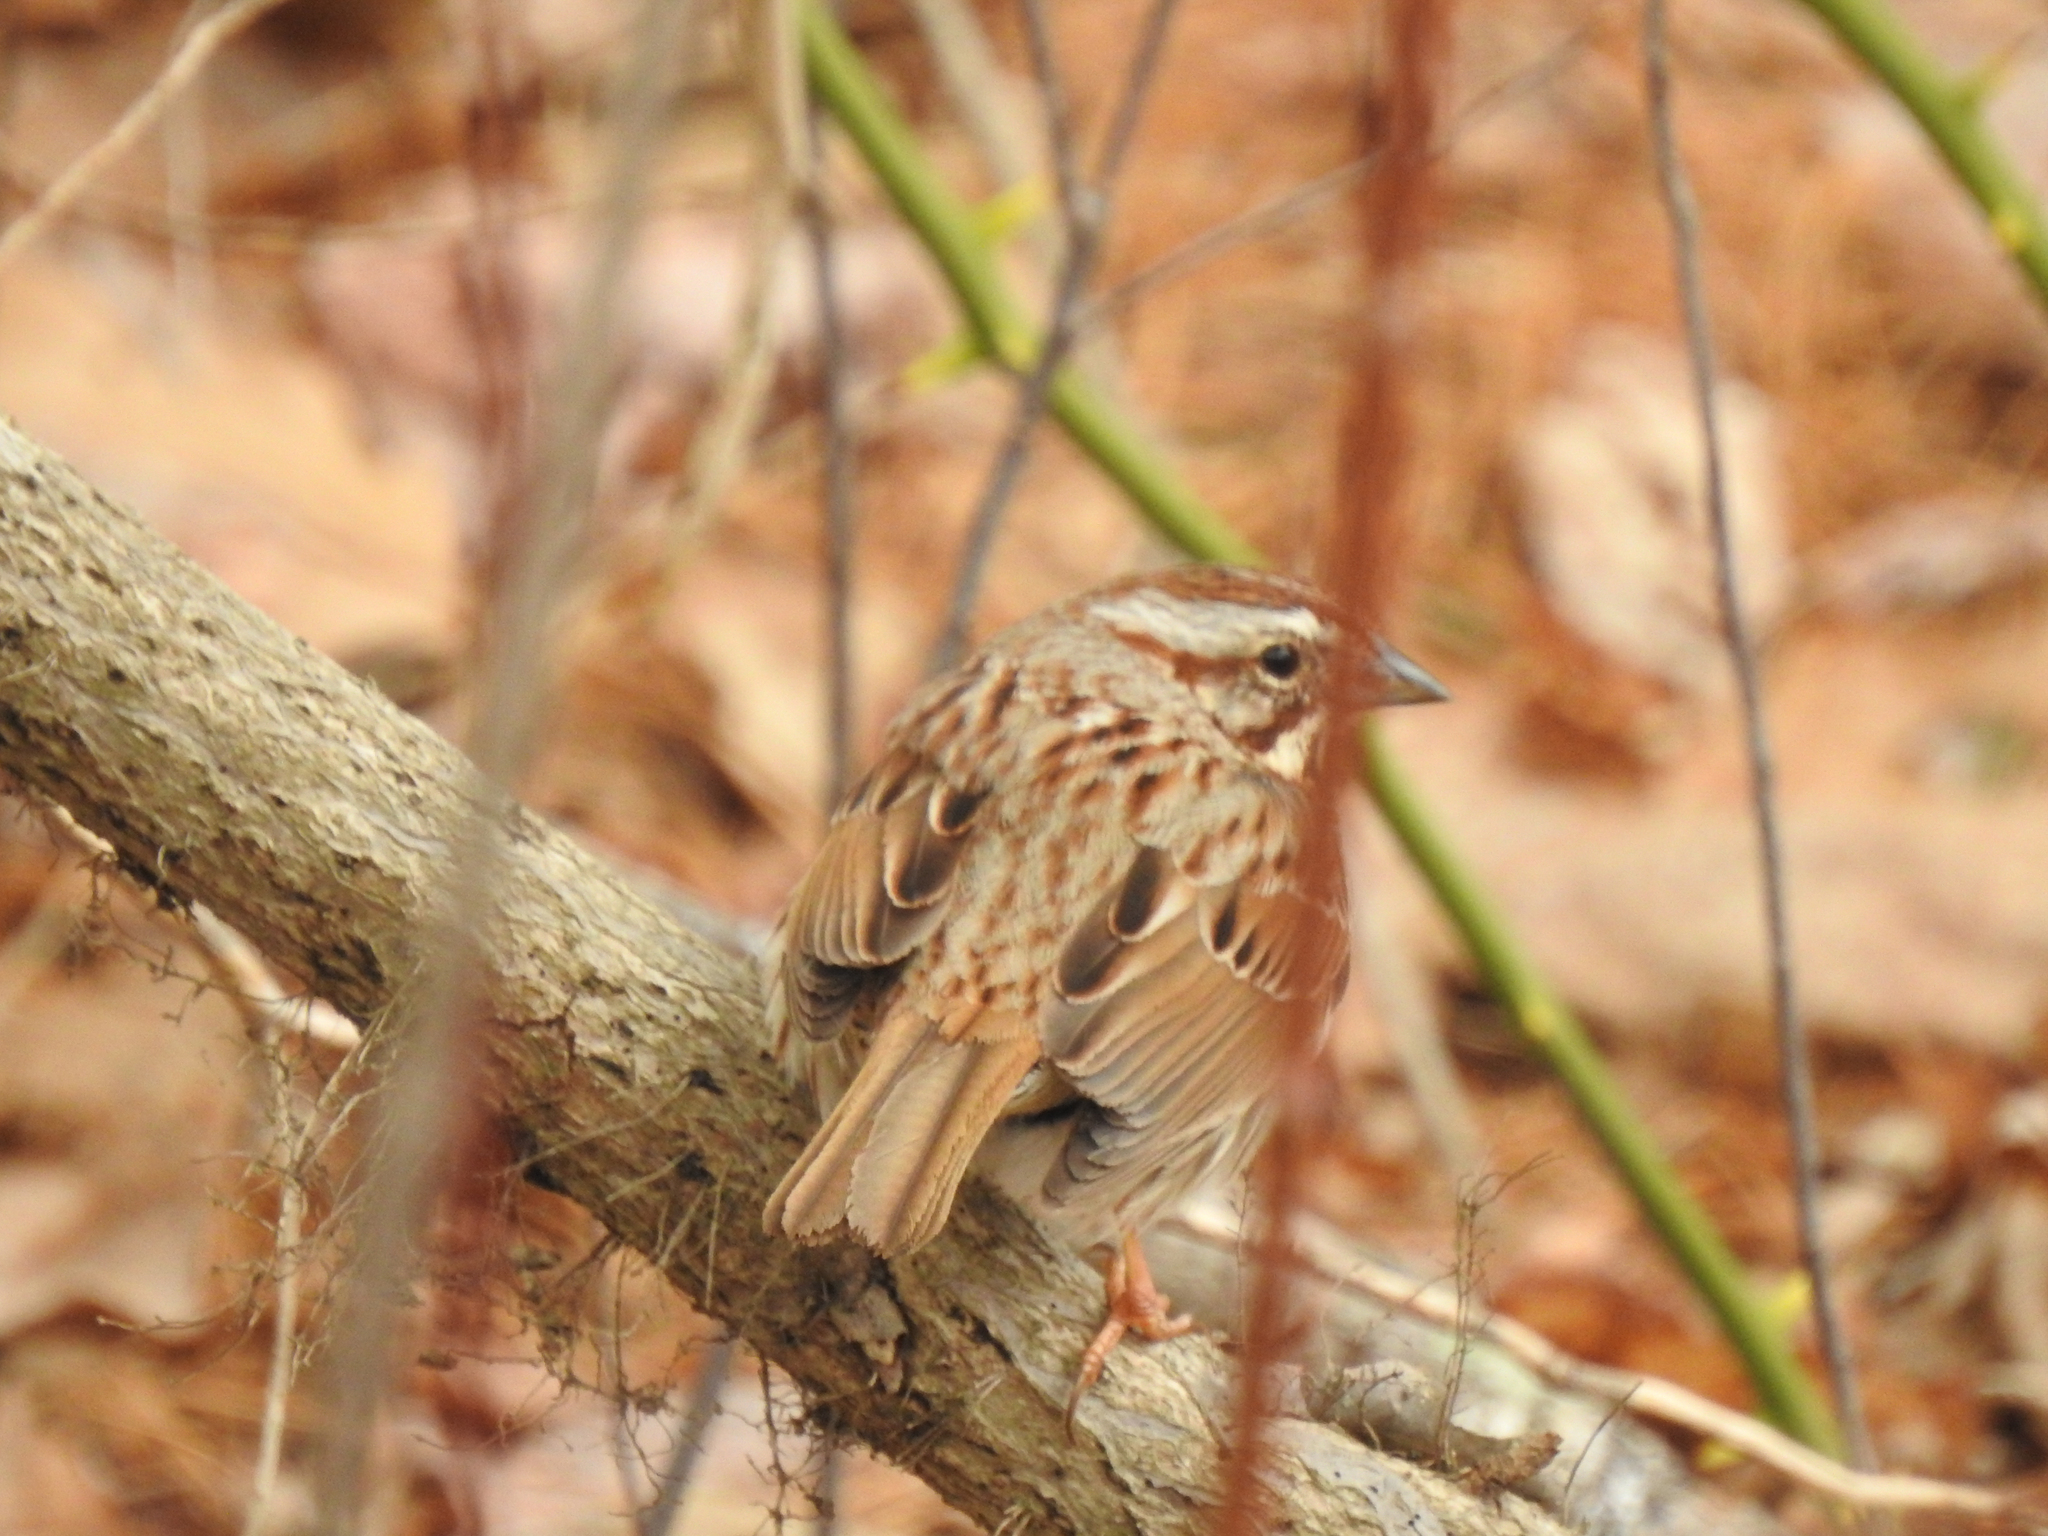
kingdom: Animalia
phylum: Chordata
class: Aves
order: Passeriformes
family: Passerellidae
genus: Melospiza
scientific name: Melospiza melodia
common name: Song sparrow
